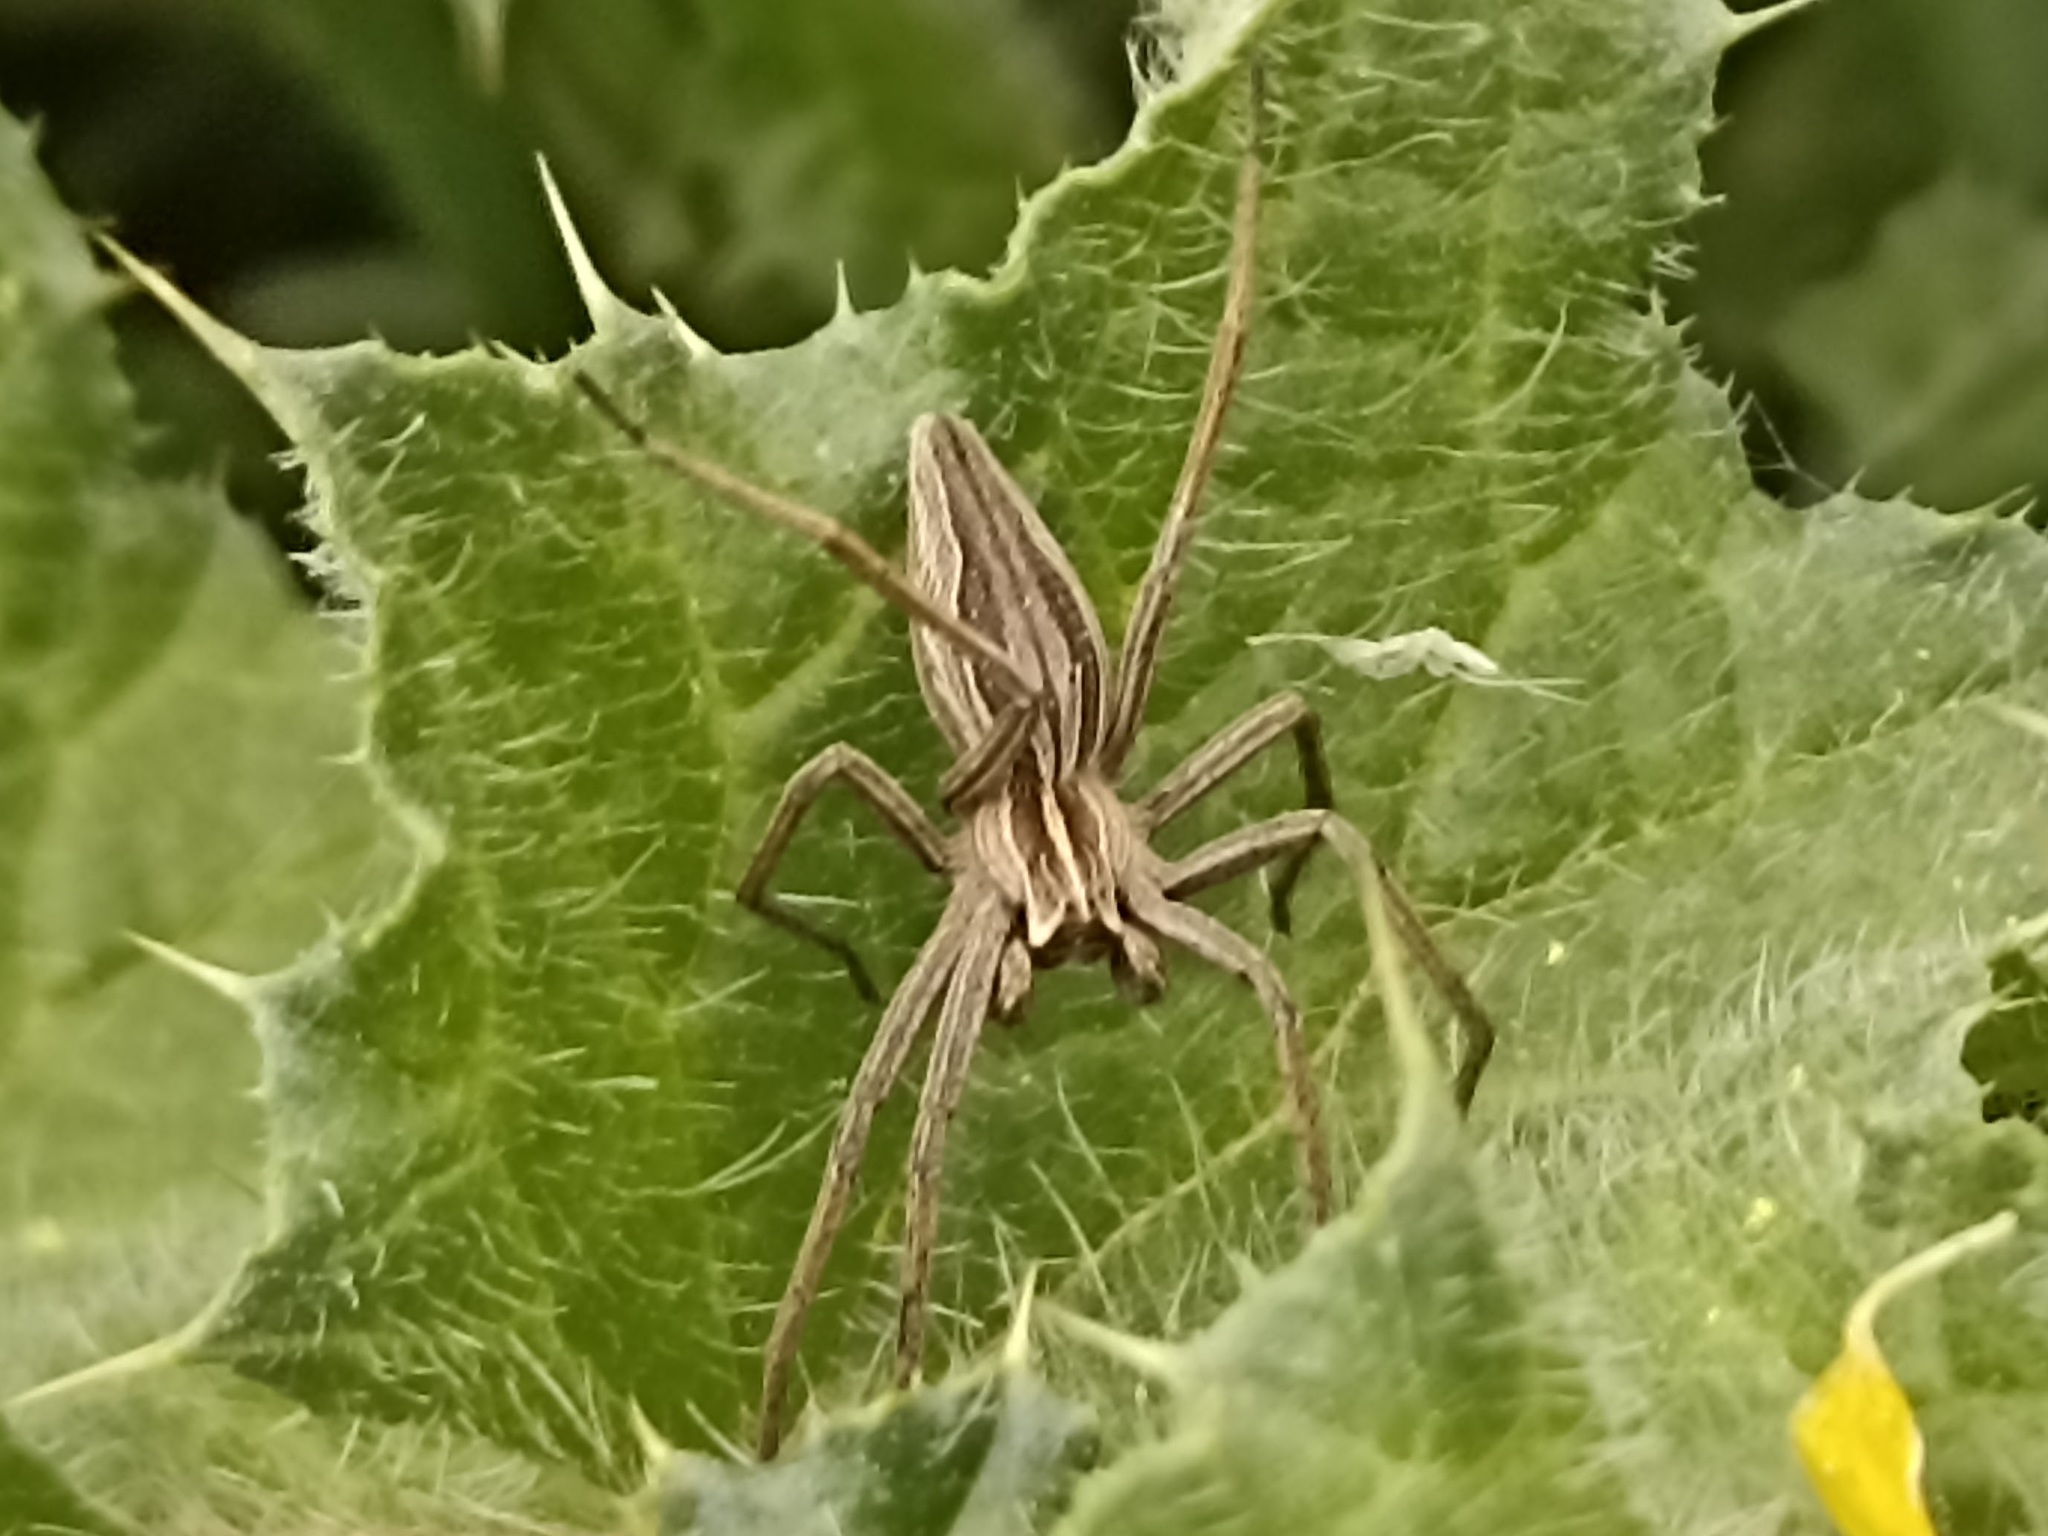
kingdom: Animalia
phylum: Arthropoda
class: Arachnida
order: Araneae
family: Pisauridae
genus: Pisaura
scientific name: Pisaura mirabilis
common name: Tent spider
